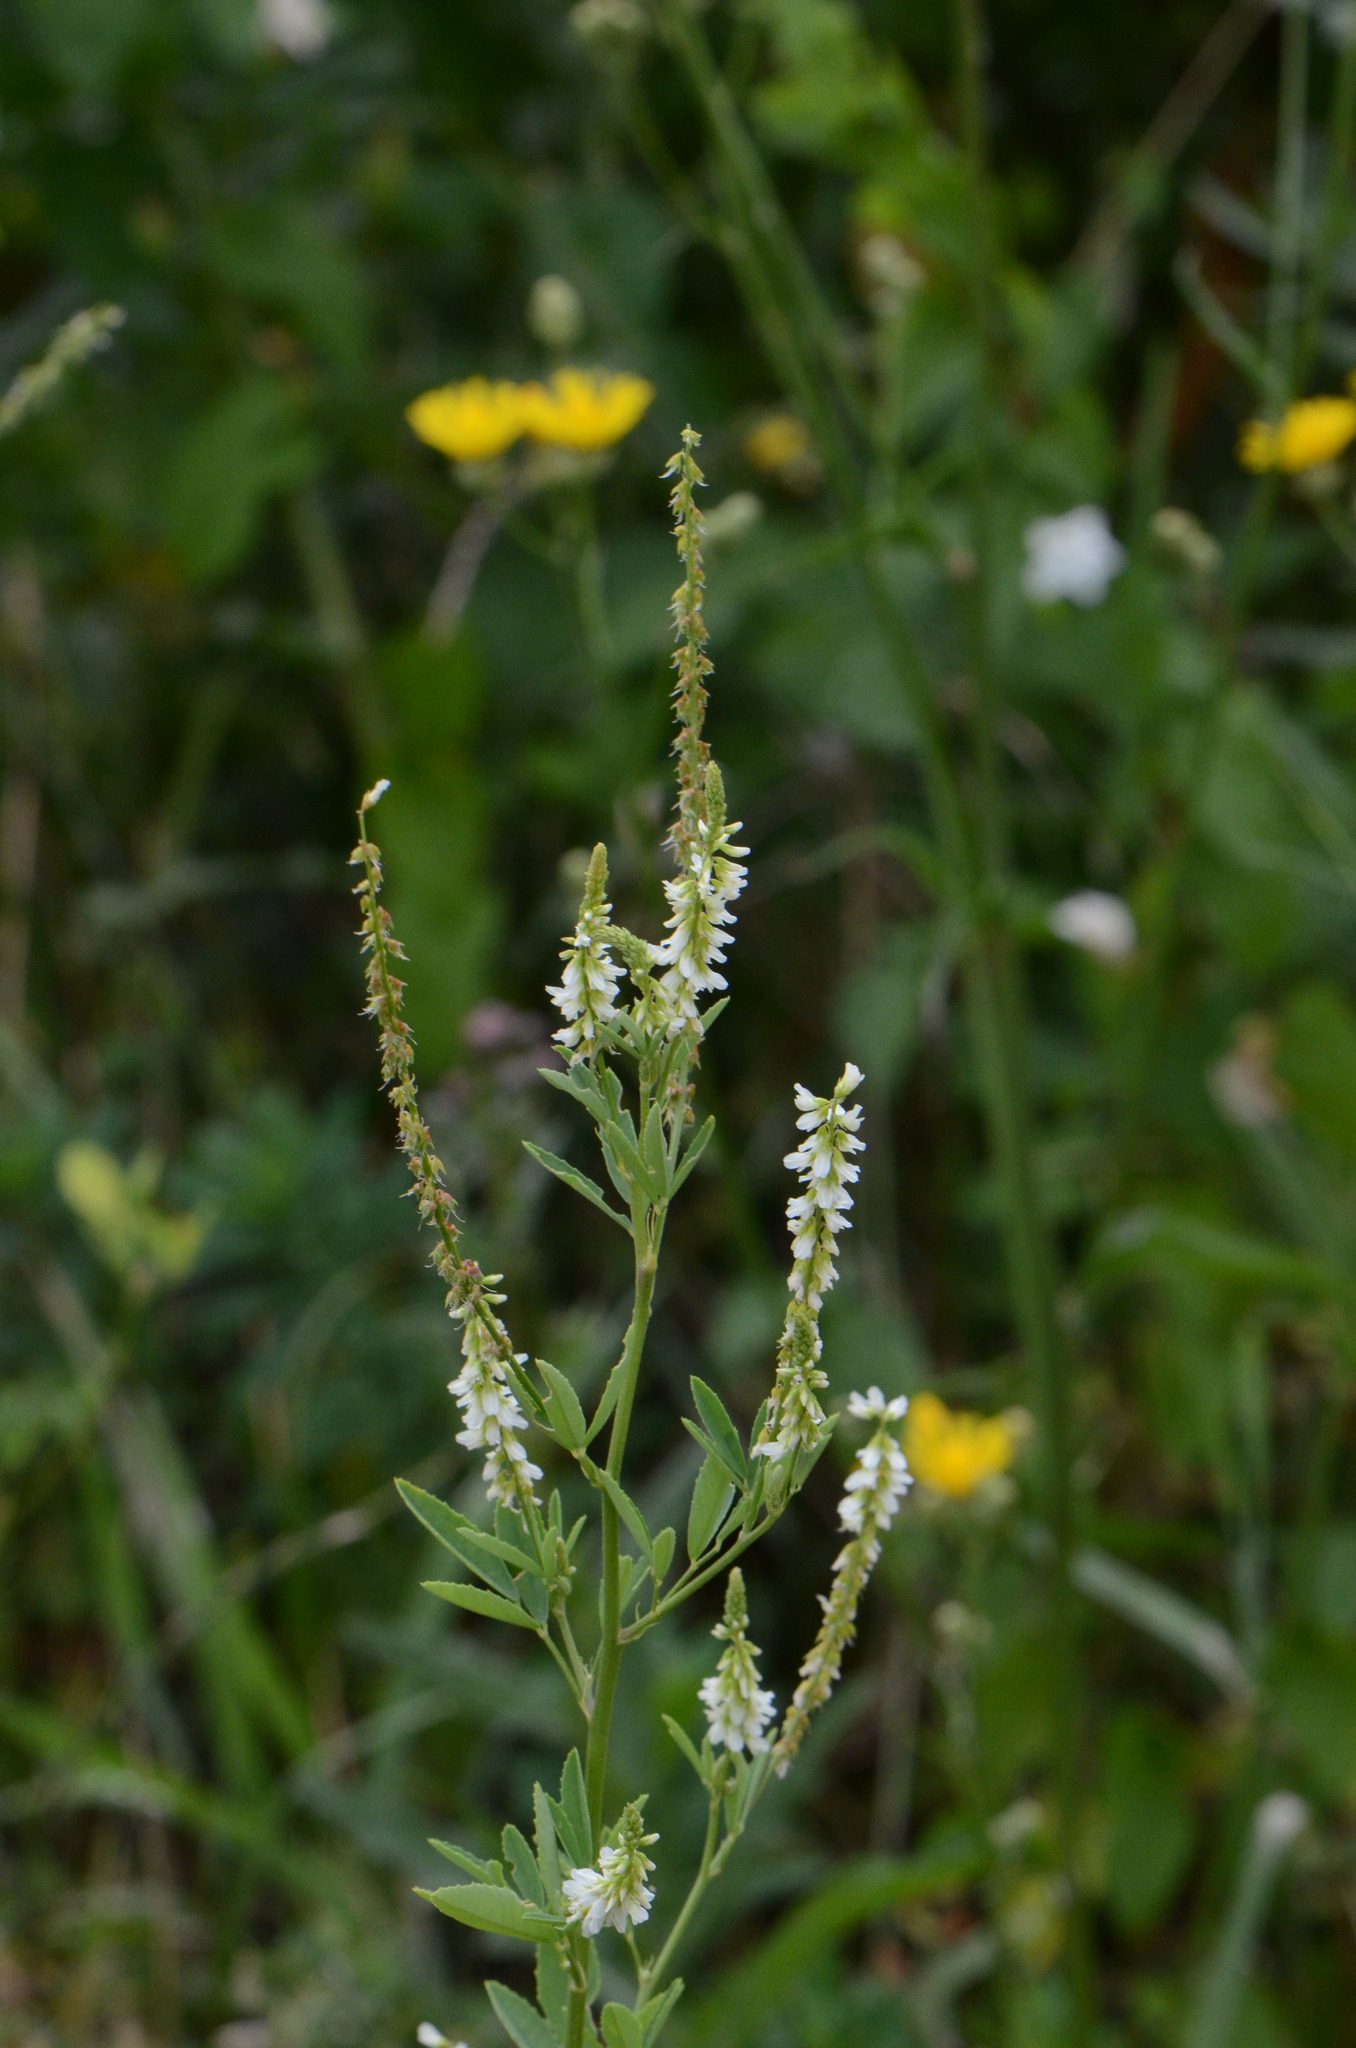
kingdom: Plantae
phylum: Tracheophyta
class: Magnoliopsida
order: Fabales
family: Fabaceae
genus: Melilotus
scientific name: Melilotus albus
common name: White melilot
